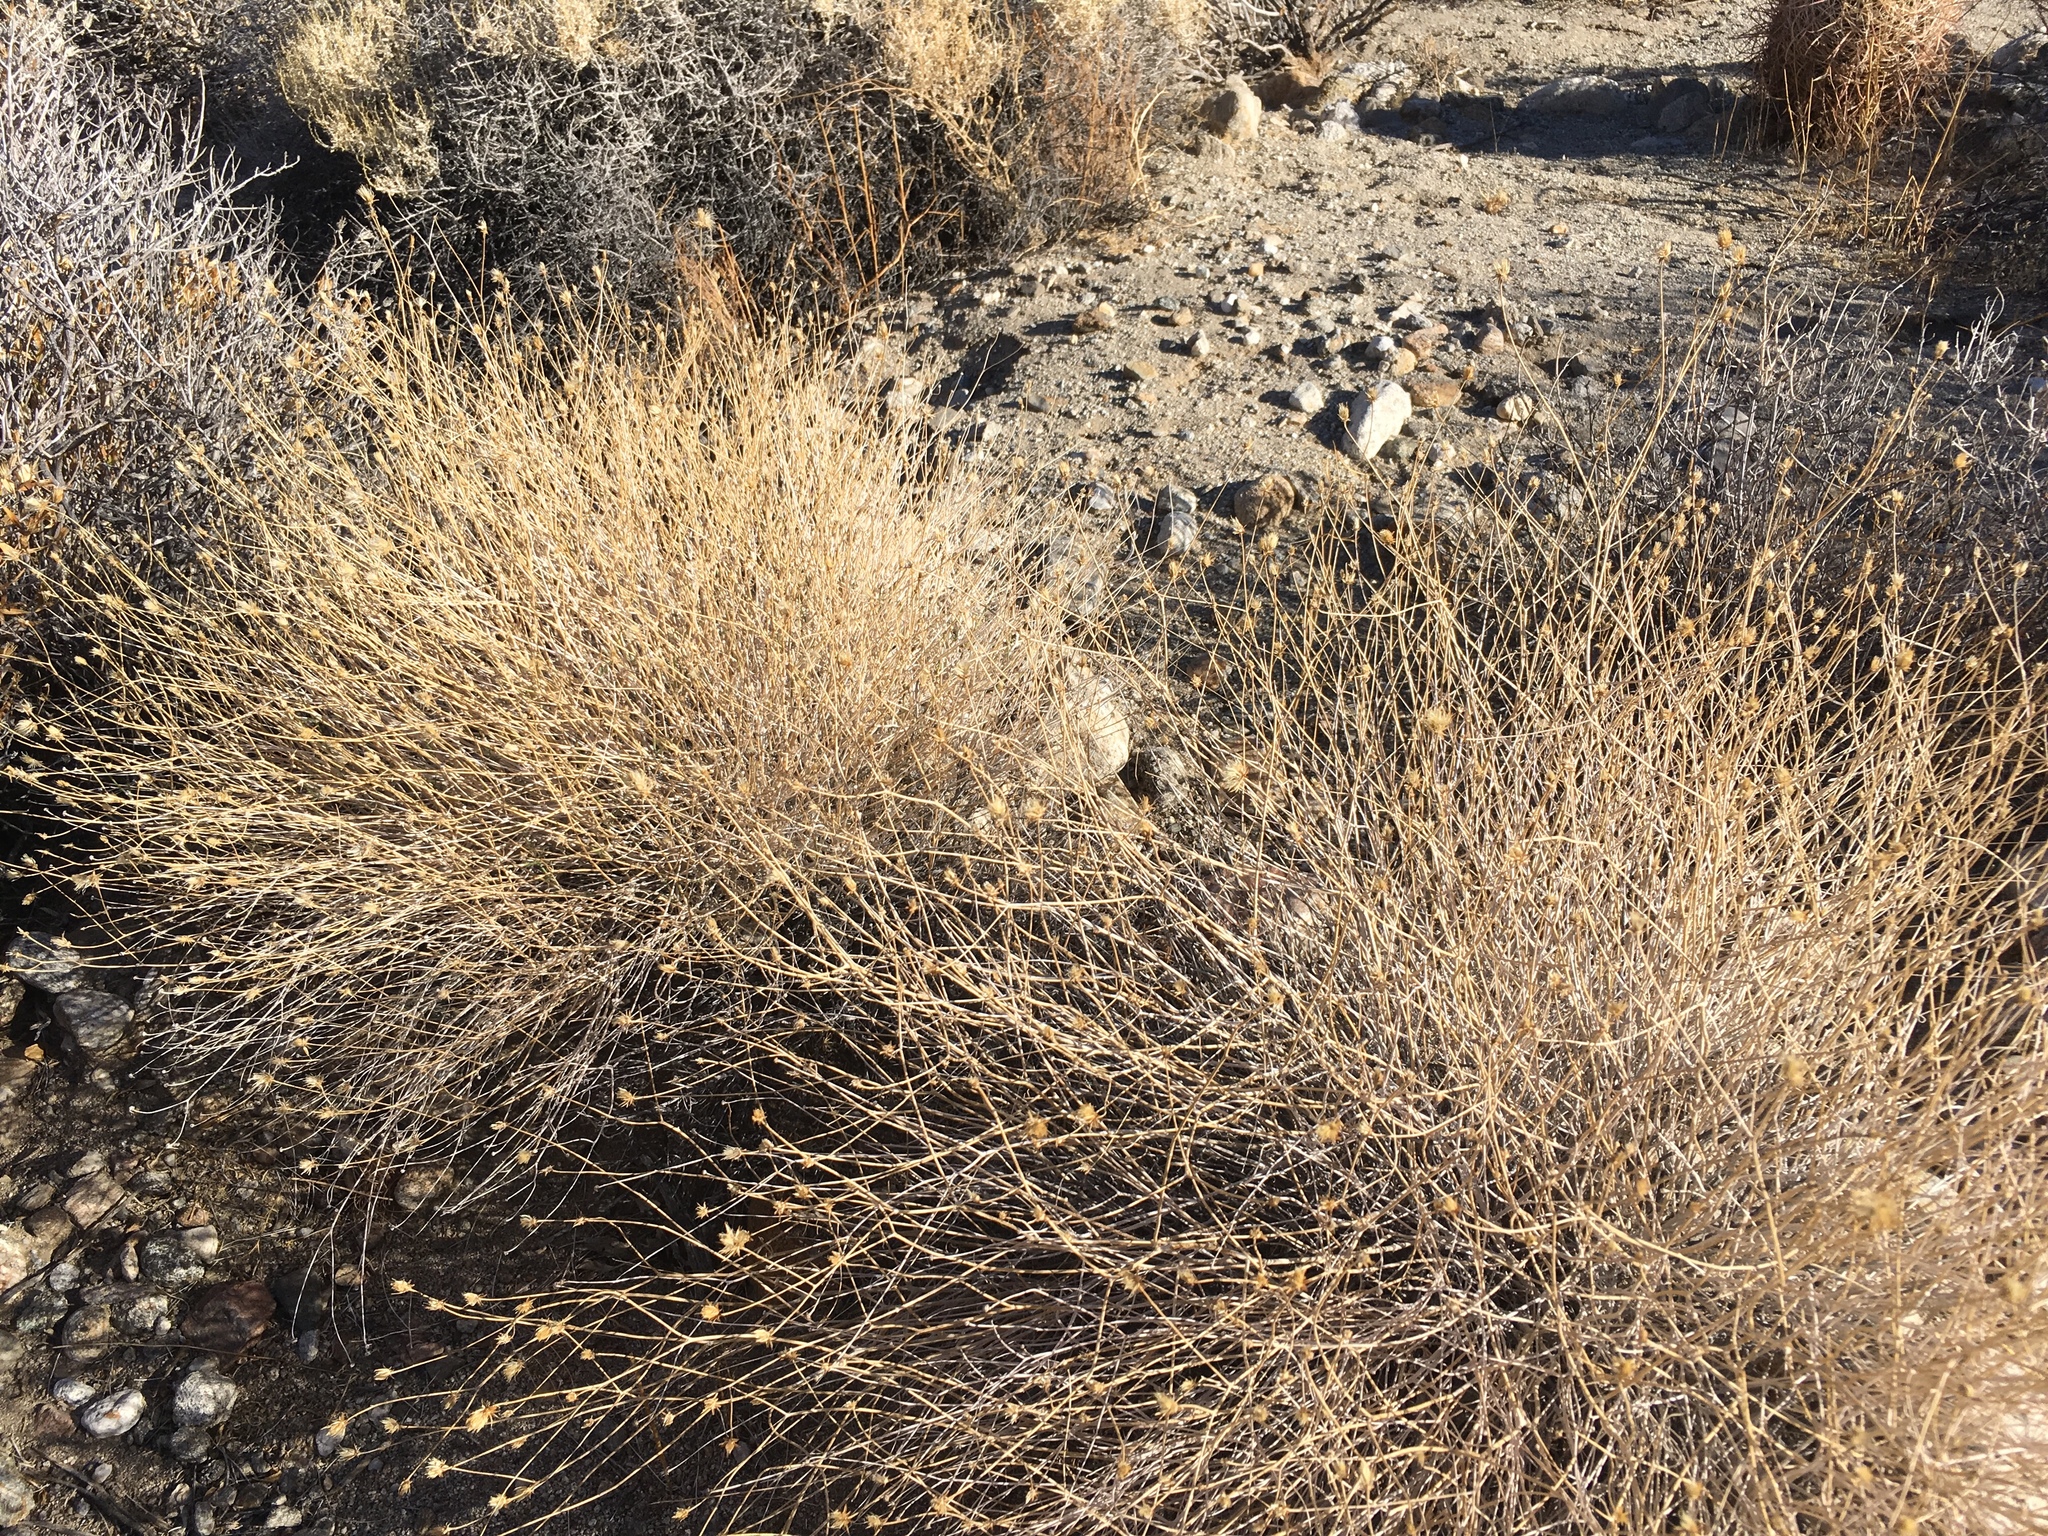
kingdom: Plantae
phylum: Tracheophyta
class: Magnoliopsida
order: Asterales
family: Asteraceae
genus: Bebbia
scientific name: Bebbia juncea
